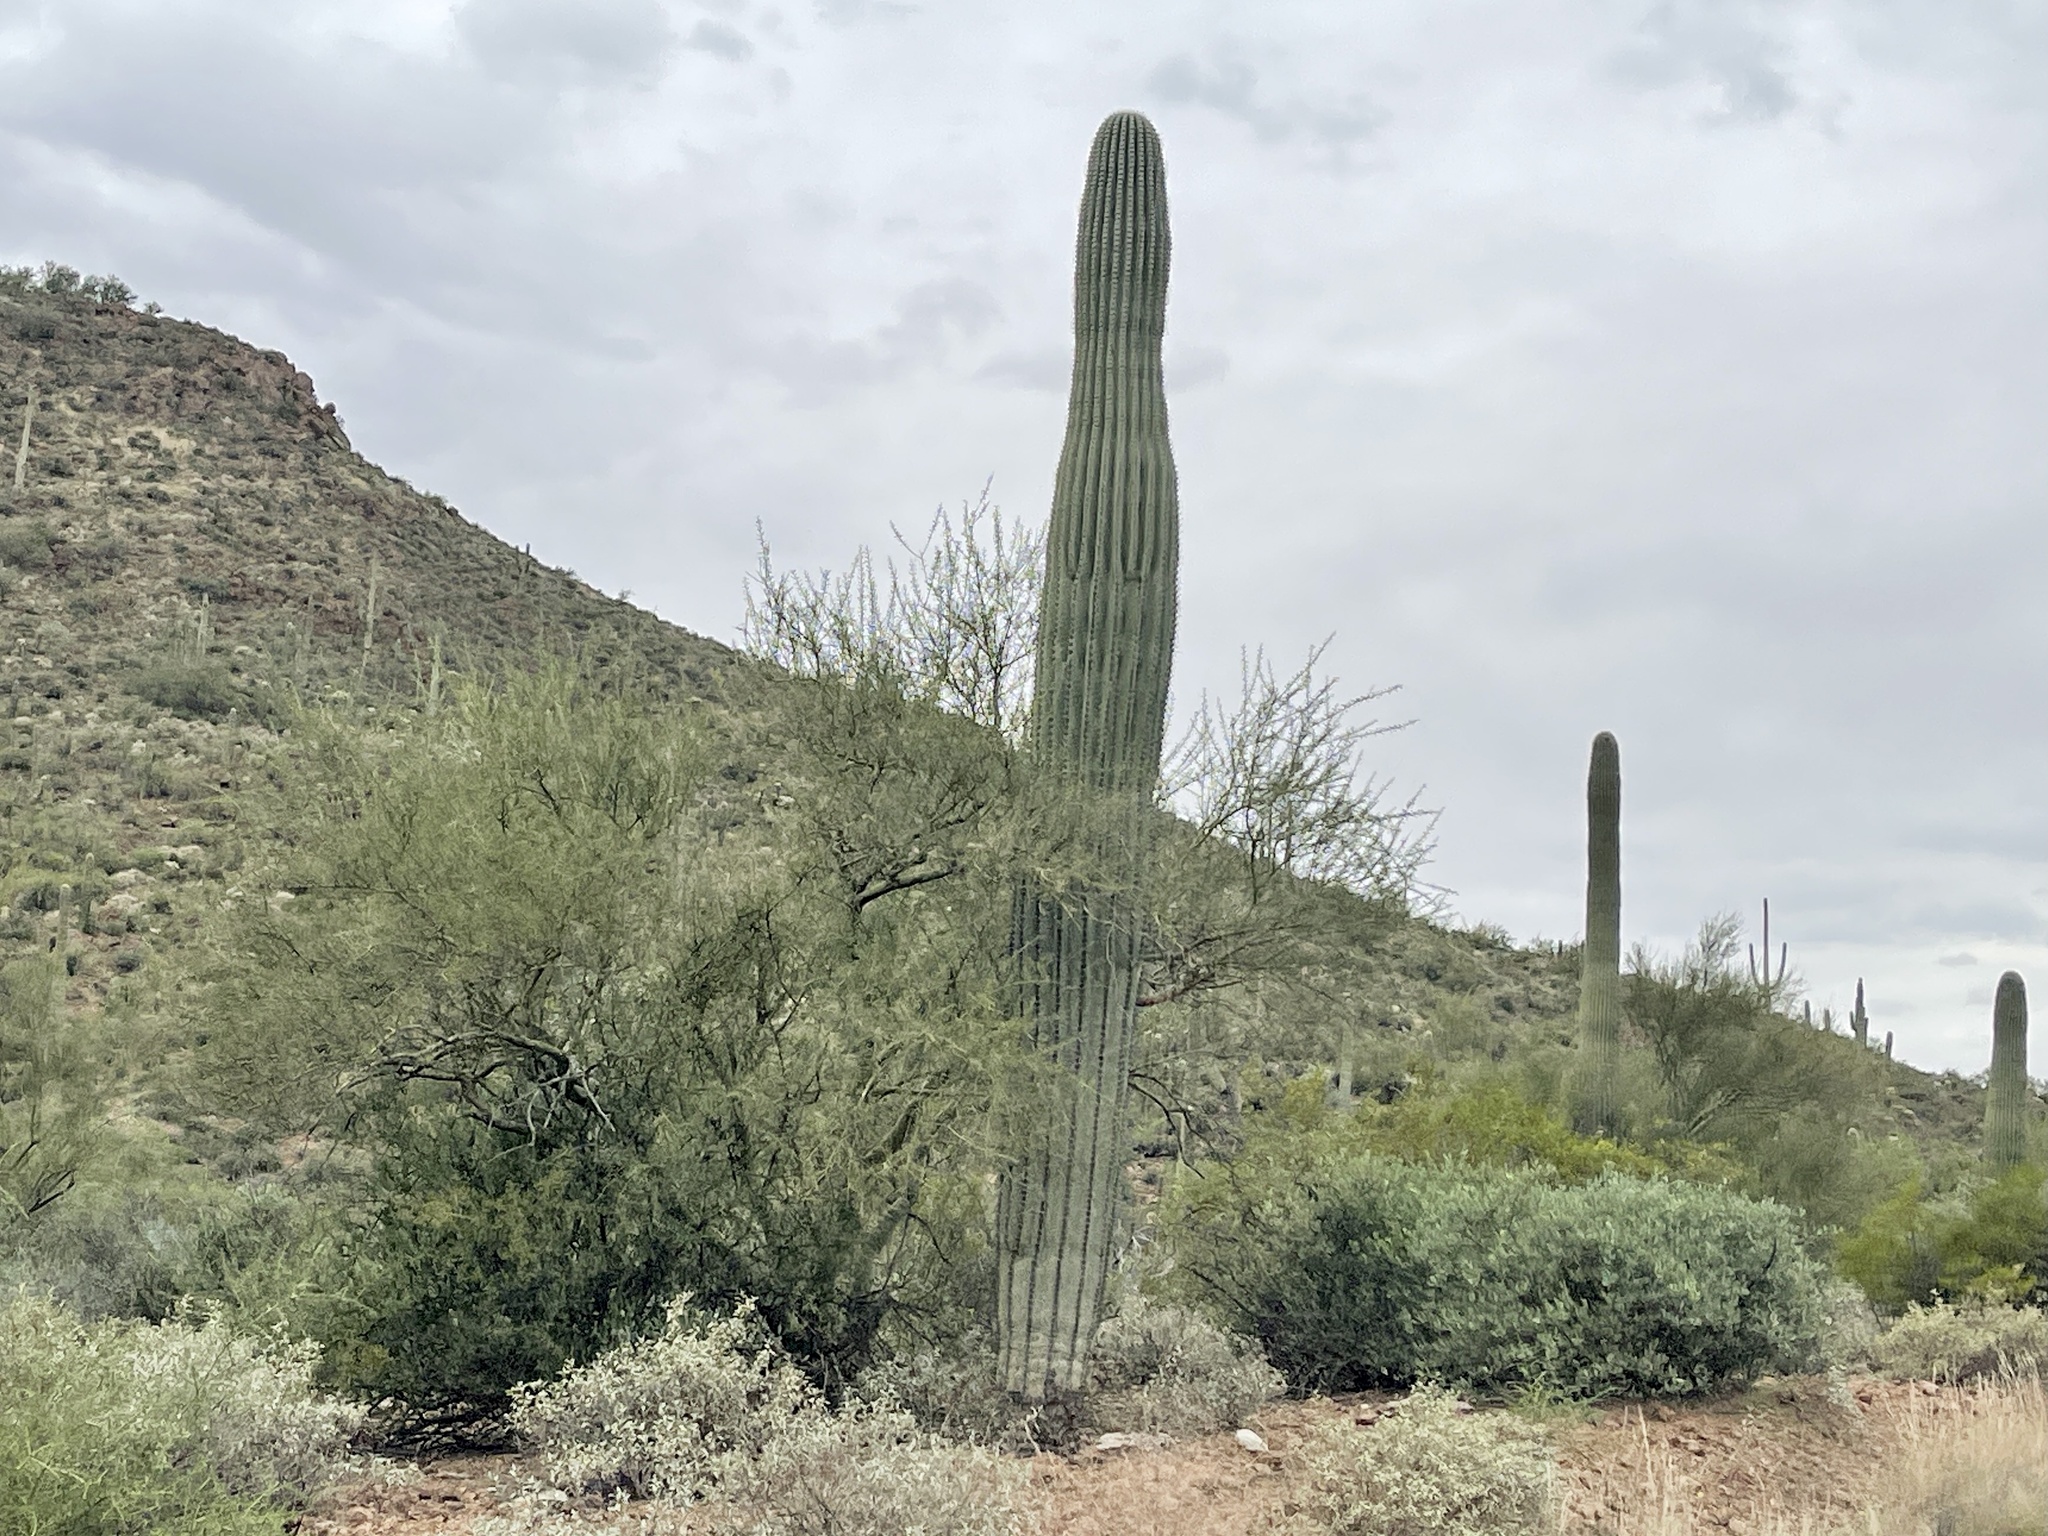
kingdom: Plantae
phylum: Tracheophyta
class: Magnoliopsida
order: Caryophyllales
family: Cactaceae
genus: Carnegiea
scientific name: Carnegiea gigantea
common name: Saguaro
